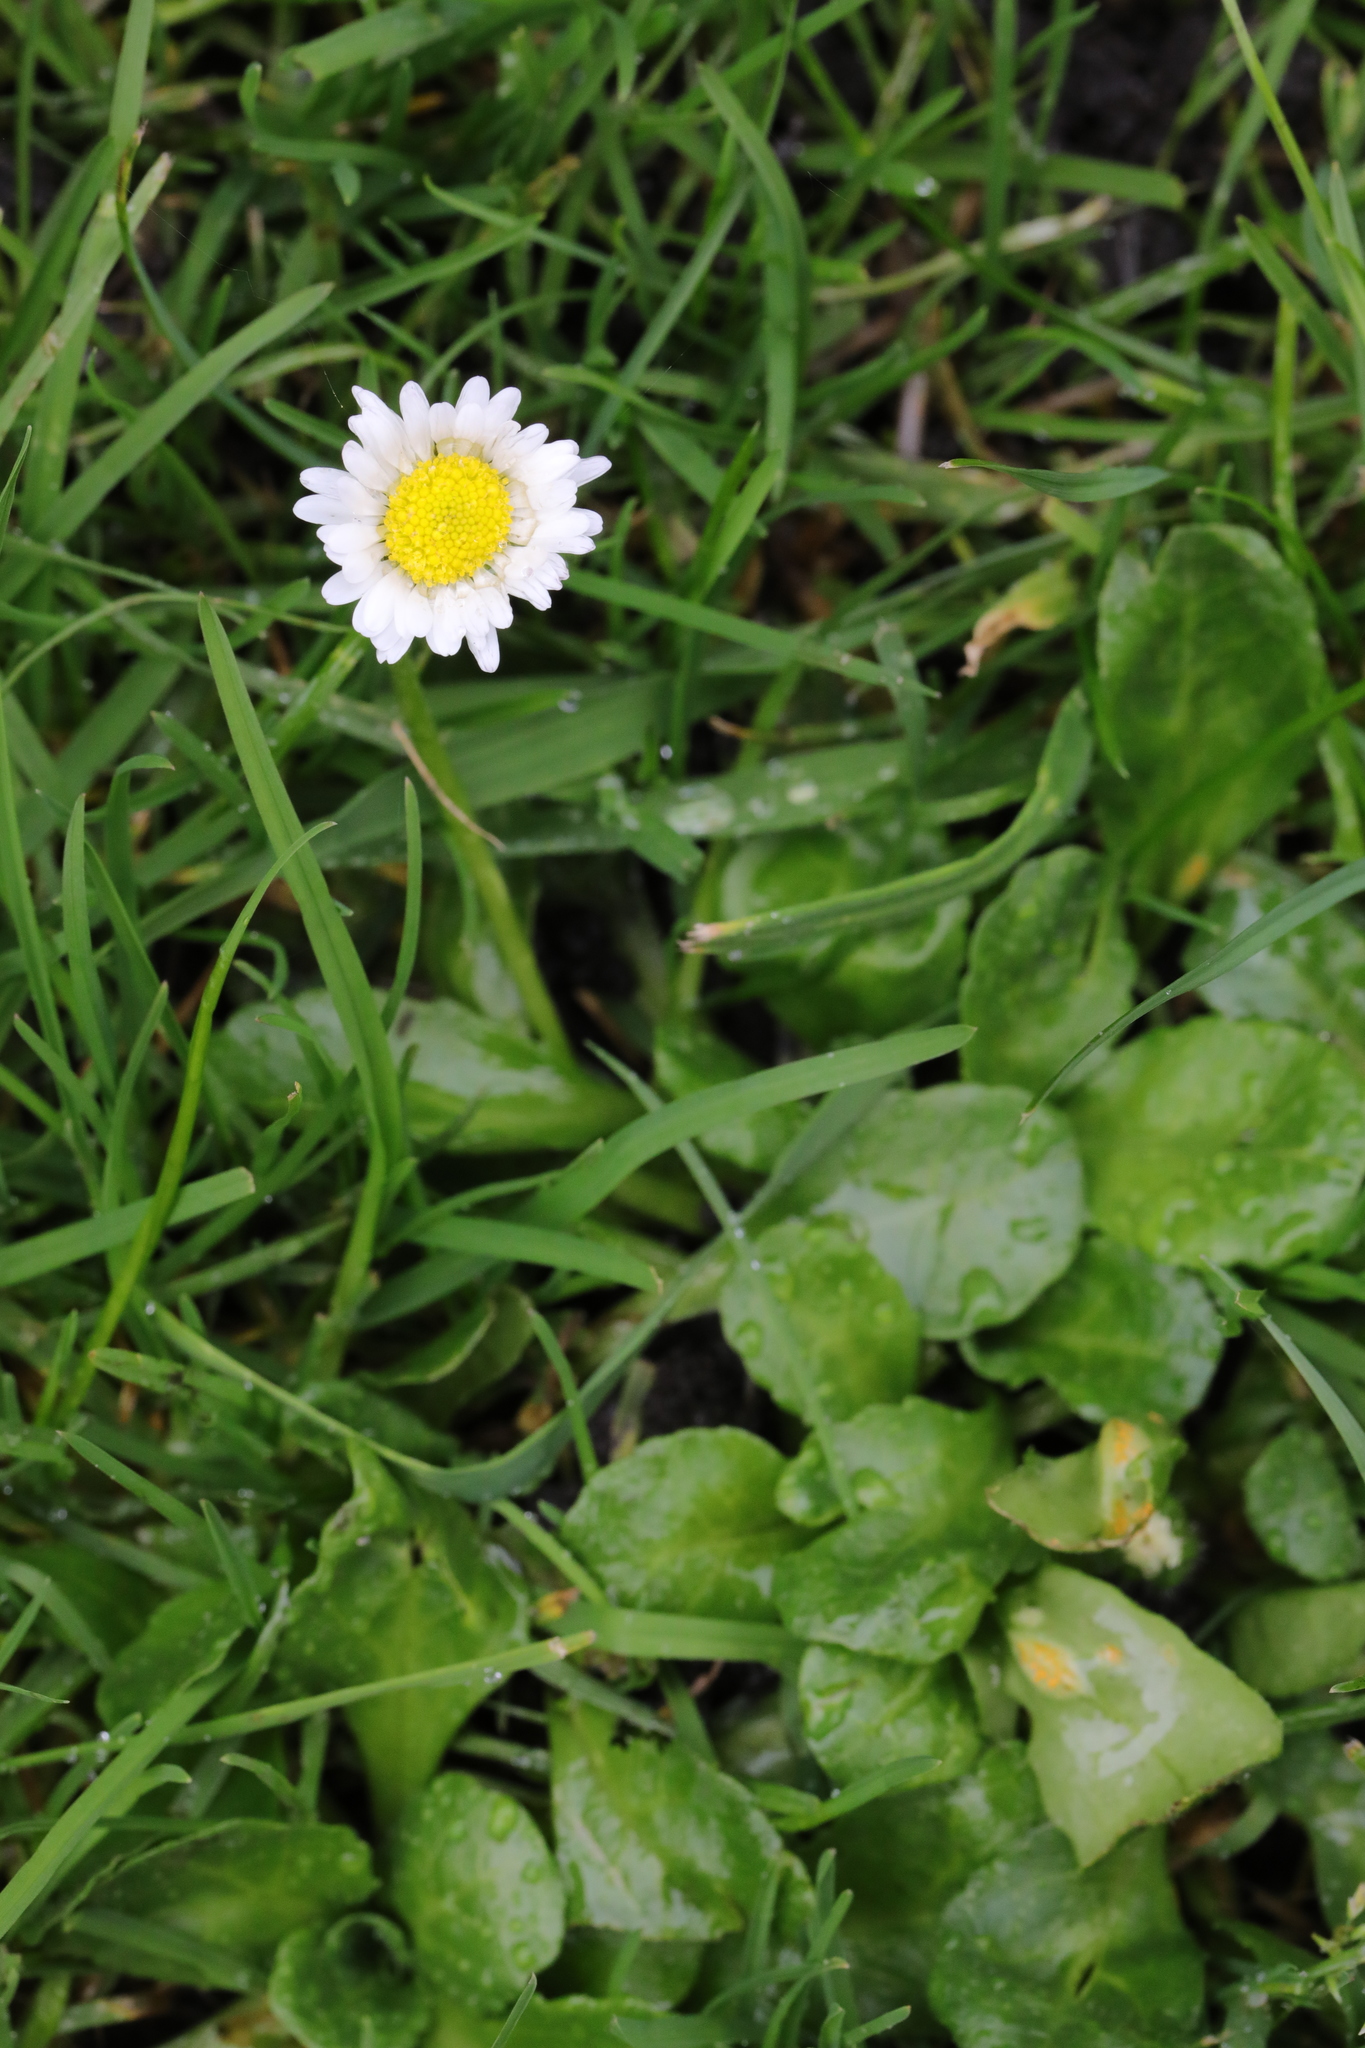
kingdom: Plantae
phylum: Tracheophyta
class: Magnoliopsida
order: Asterales
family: Asteraceae
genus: Bellis
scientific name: Bellis perennis
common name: Lawndaisy
